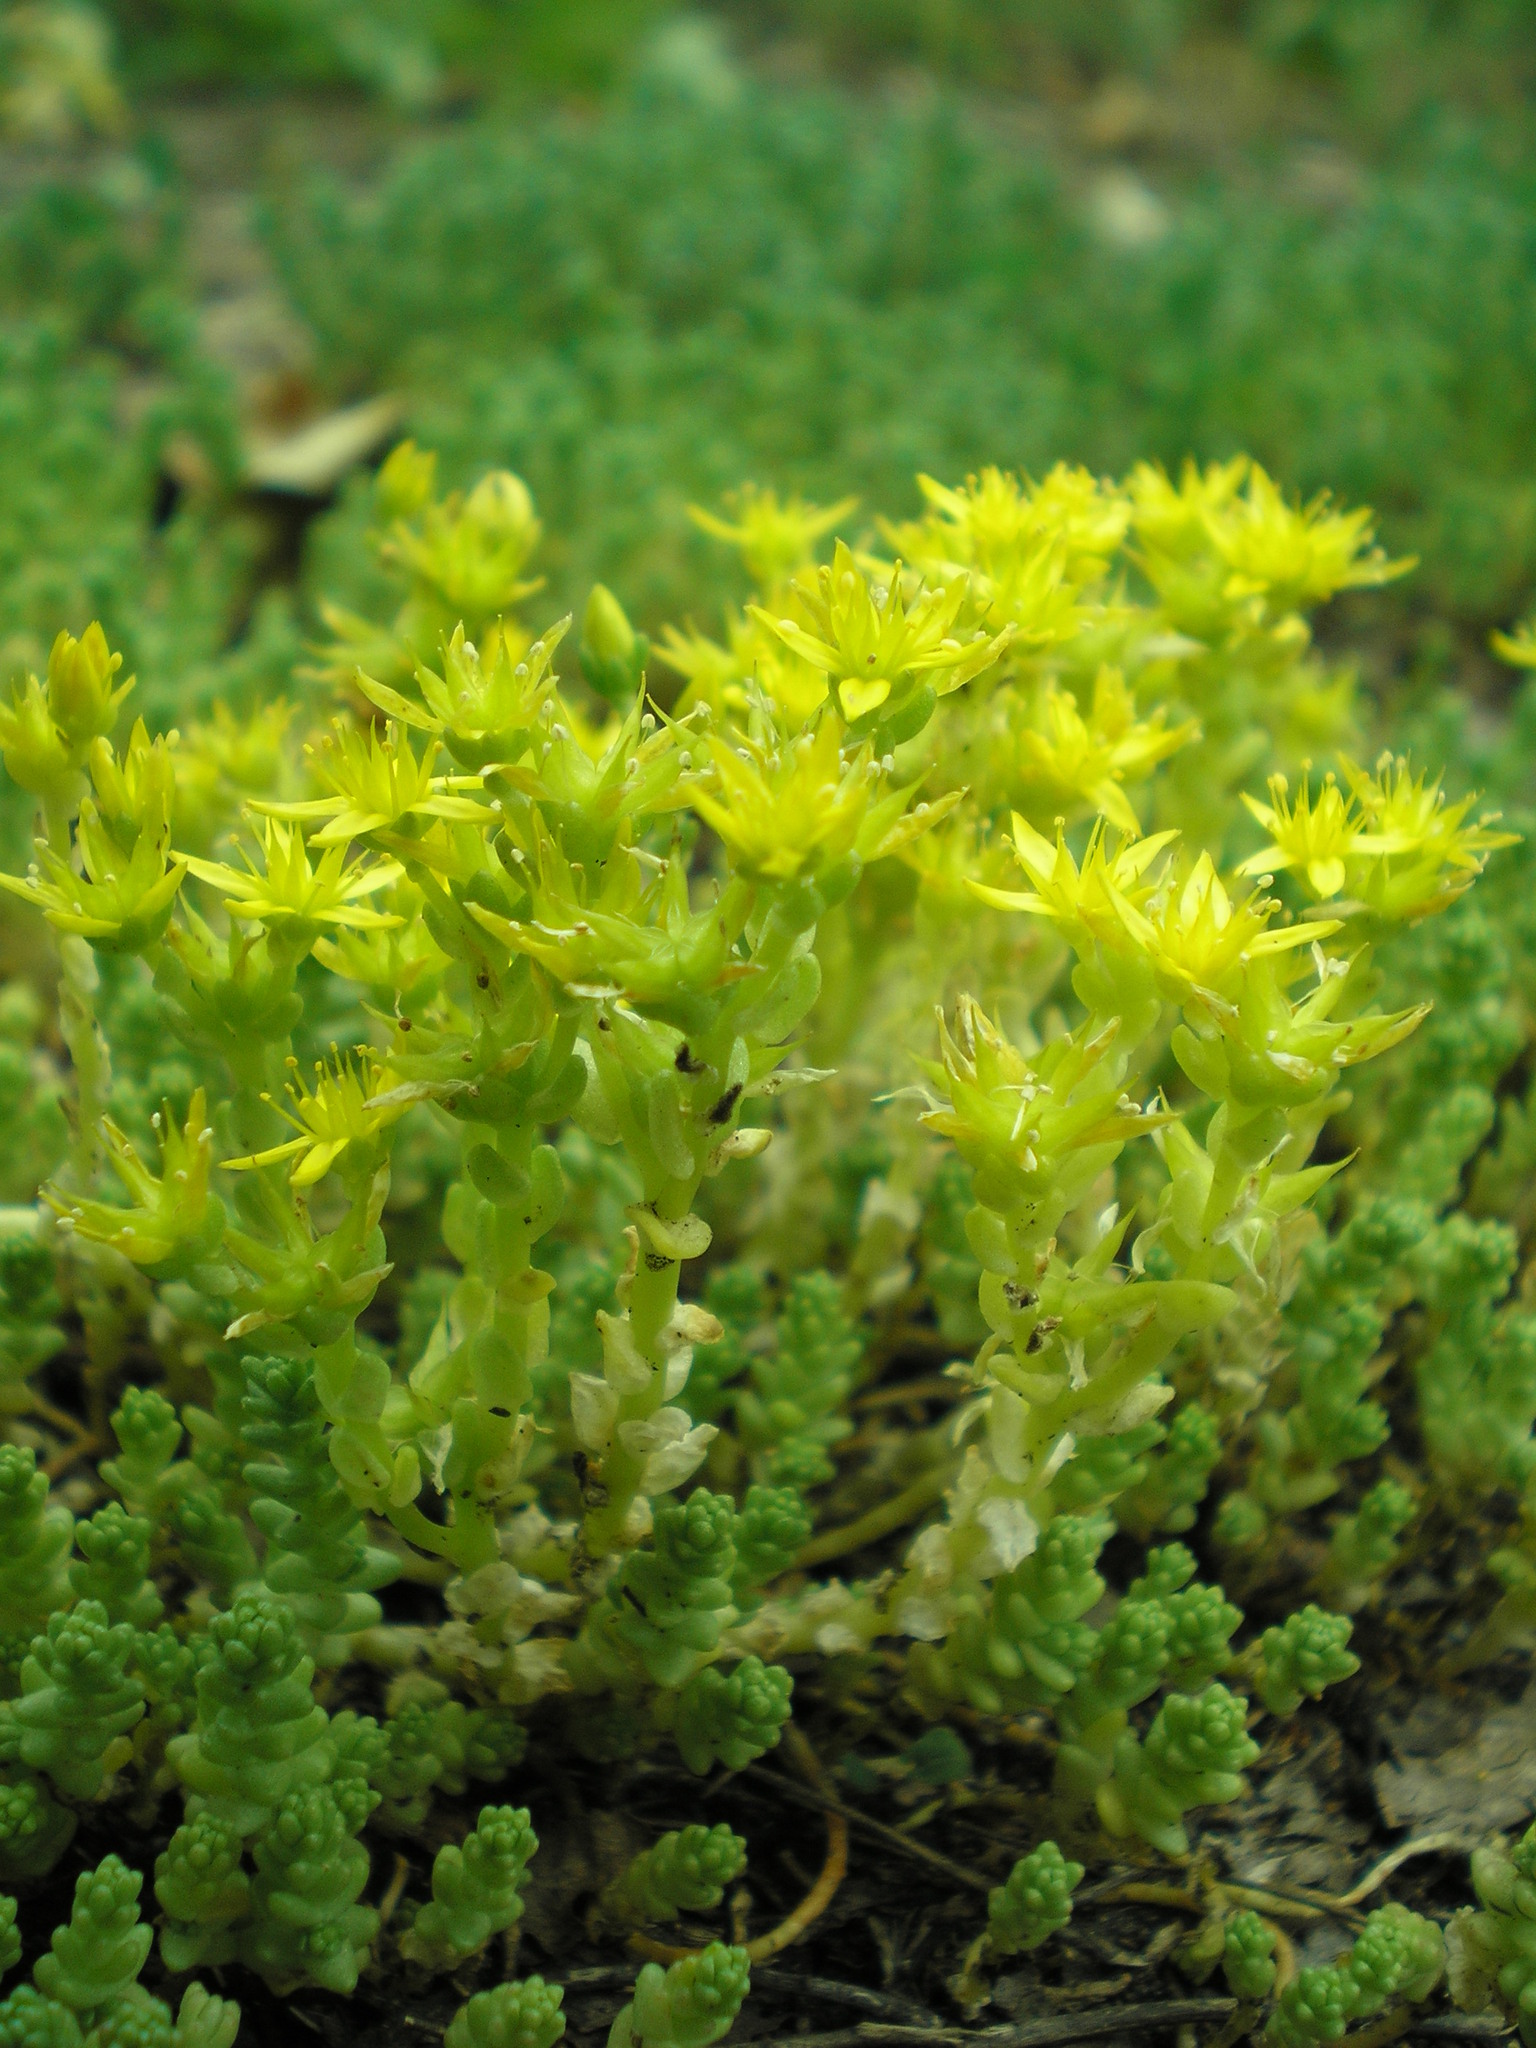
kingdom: Plantae
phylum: Tracheophyta
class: Magnoliopsida
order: Saxifragales
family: Crassulaceae
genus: Sedum
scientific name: Sedum acre
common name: Biting stonecrop
